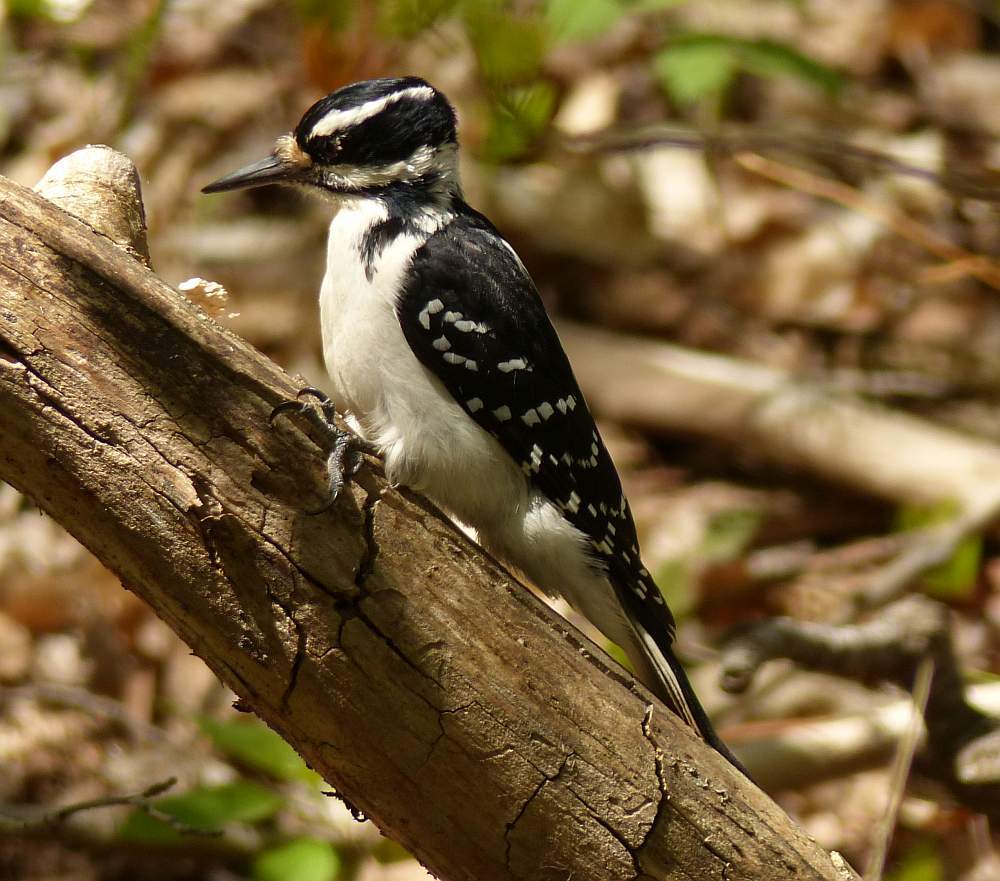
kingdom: Animalia
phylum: Chordata
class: Aves
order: Piciformes
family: Picidae
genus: Leuconotopicus
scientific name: Leuconotopicus villosus
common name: Hairy woodpecker
